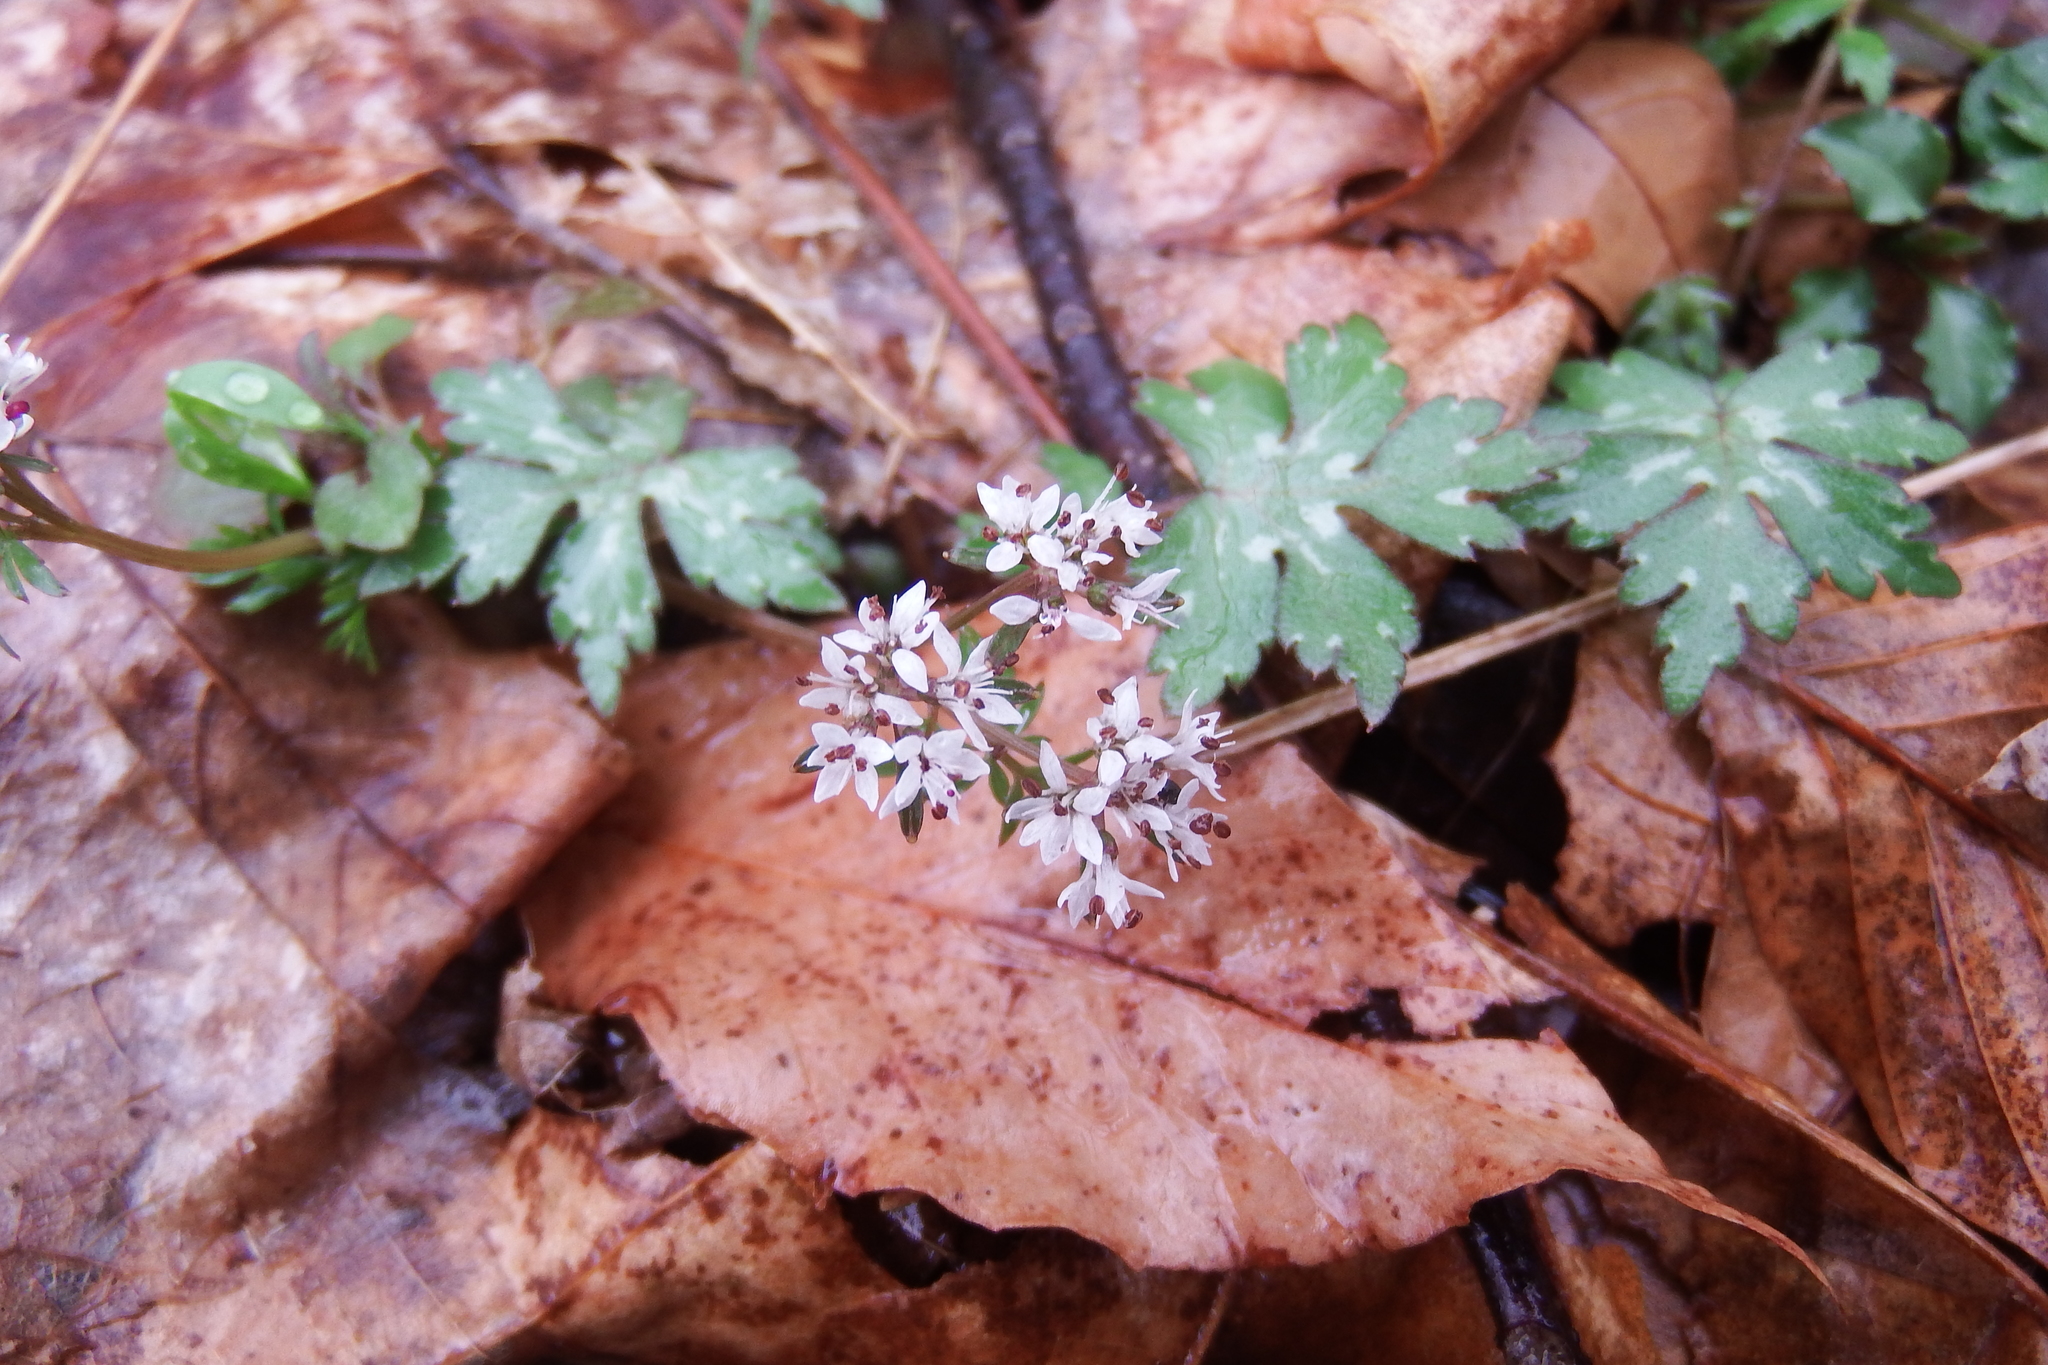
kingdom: Plantae
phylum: Tracheophyta
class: Magnoliopsida
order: Apiales
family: Apiaceae
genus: Erigenia
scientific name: Erigenia bulbosa
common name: Pepper-and-salt
